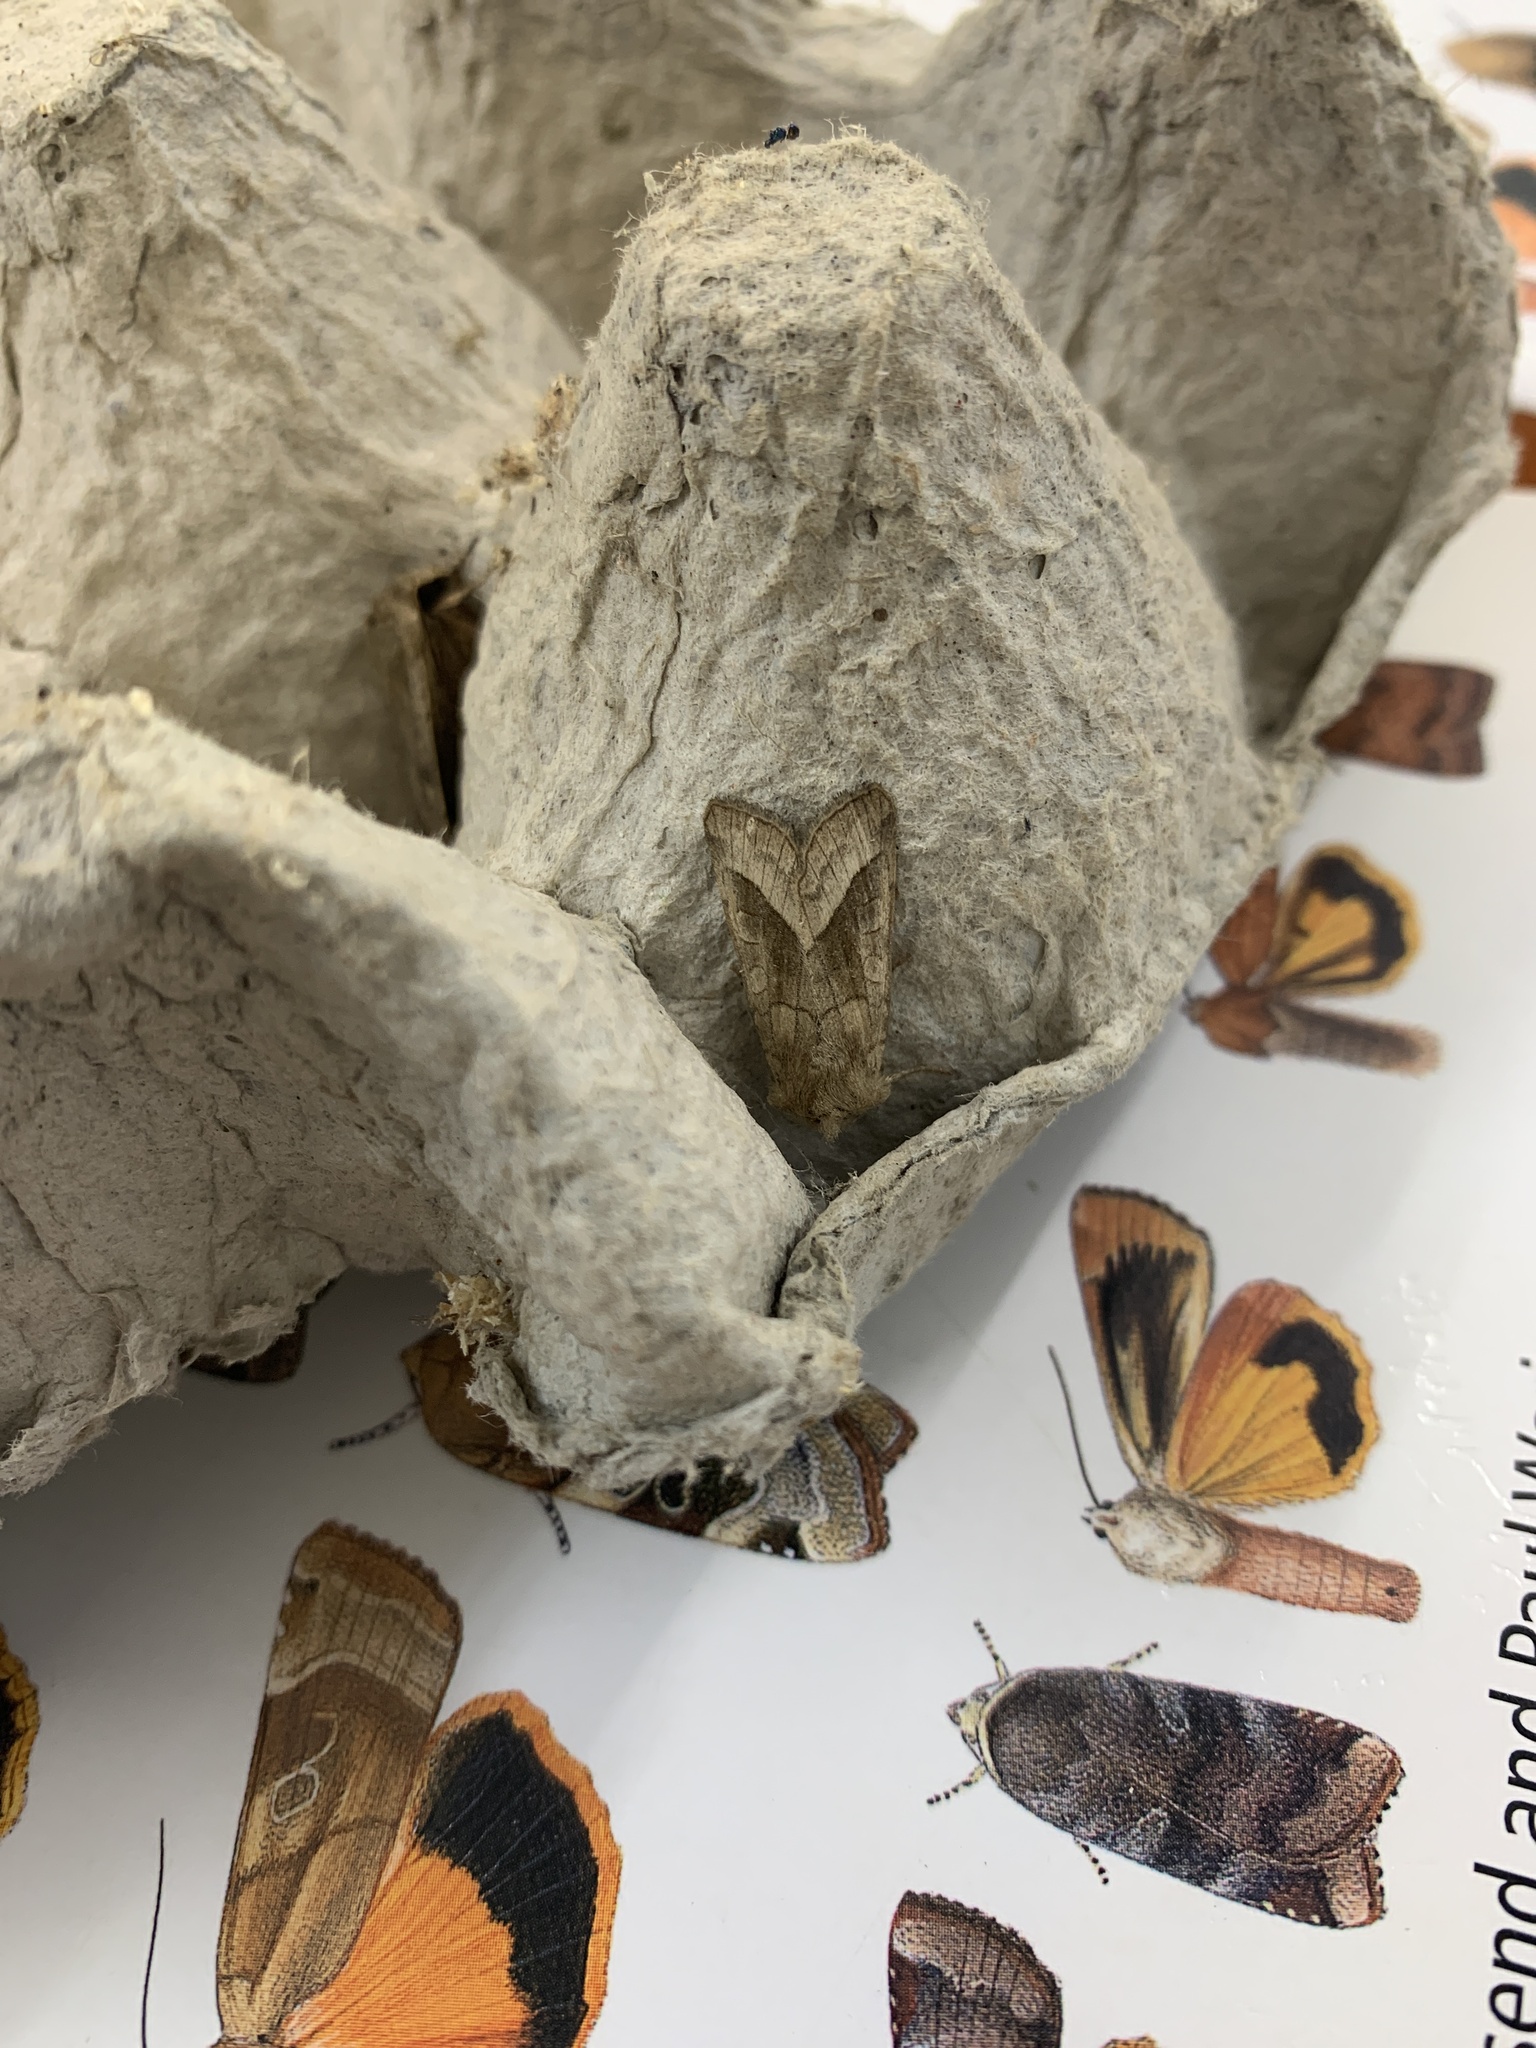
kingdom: Animalia
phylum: Arthropoda
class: Insecta
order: Lepidoptera
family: Noctuidae
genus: Hydraecia
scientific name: Hydraecia micacea
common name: Rosy rustic
